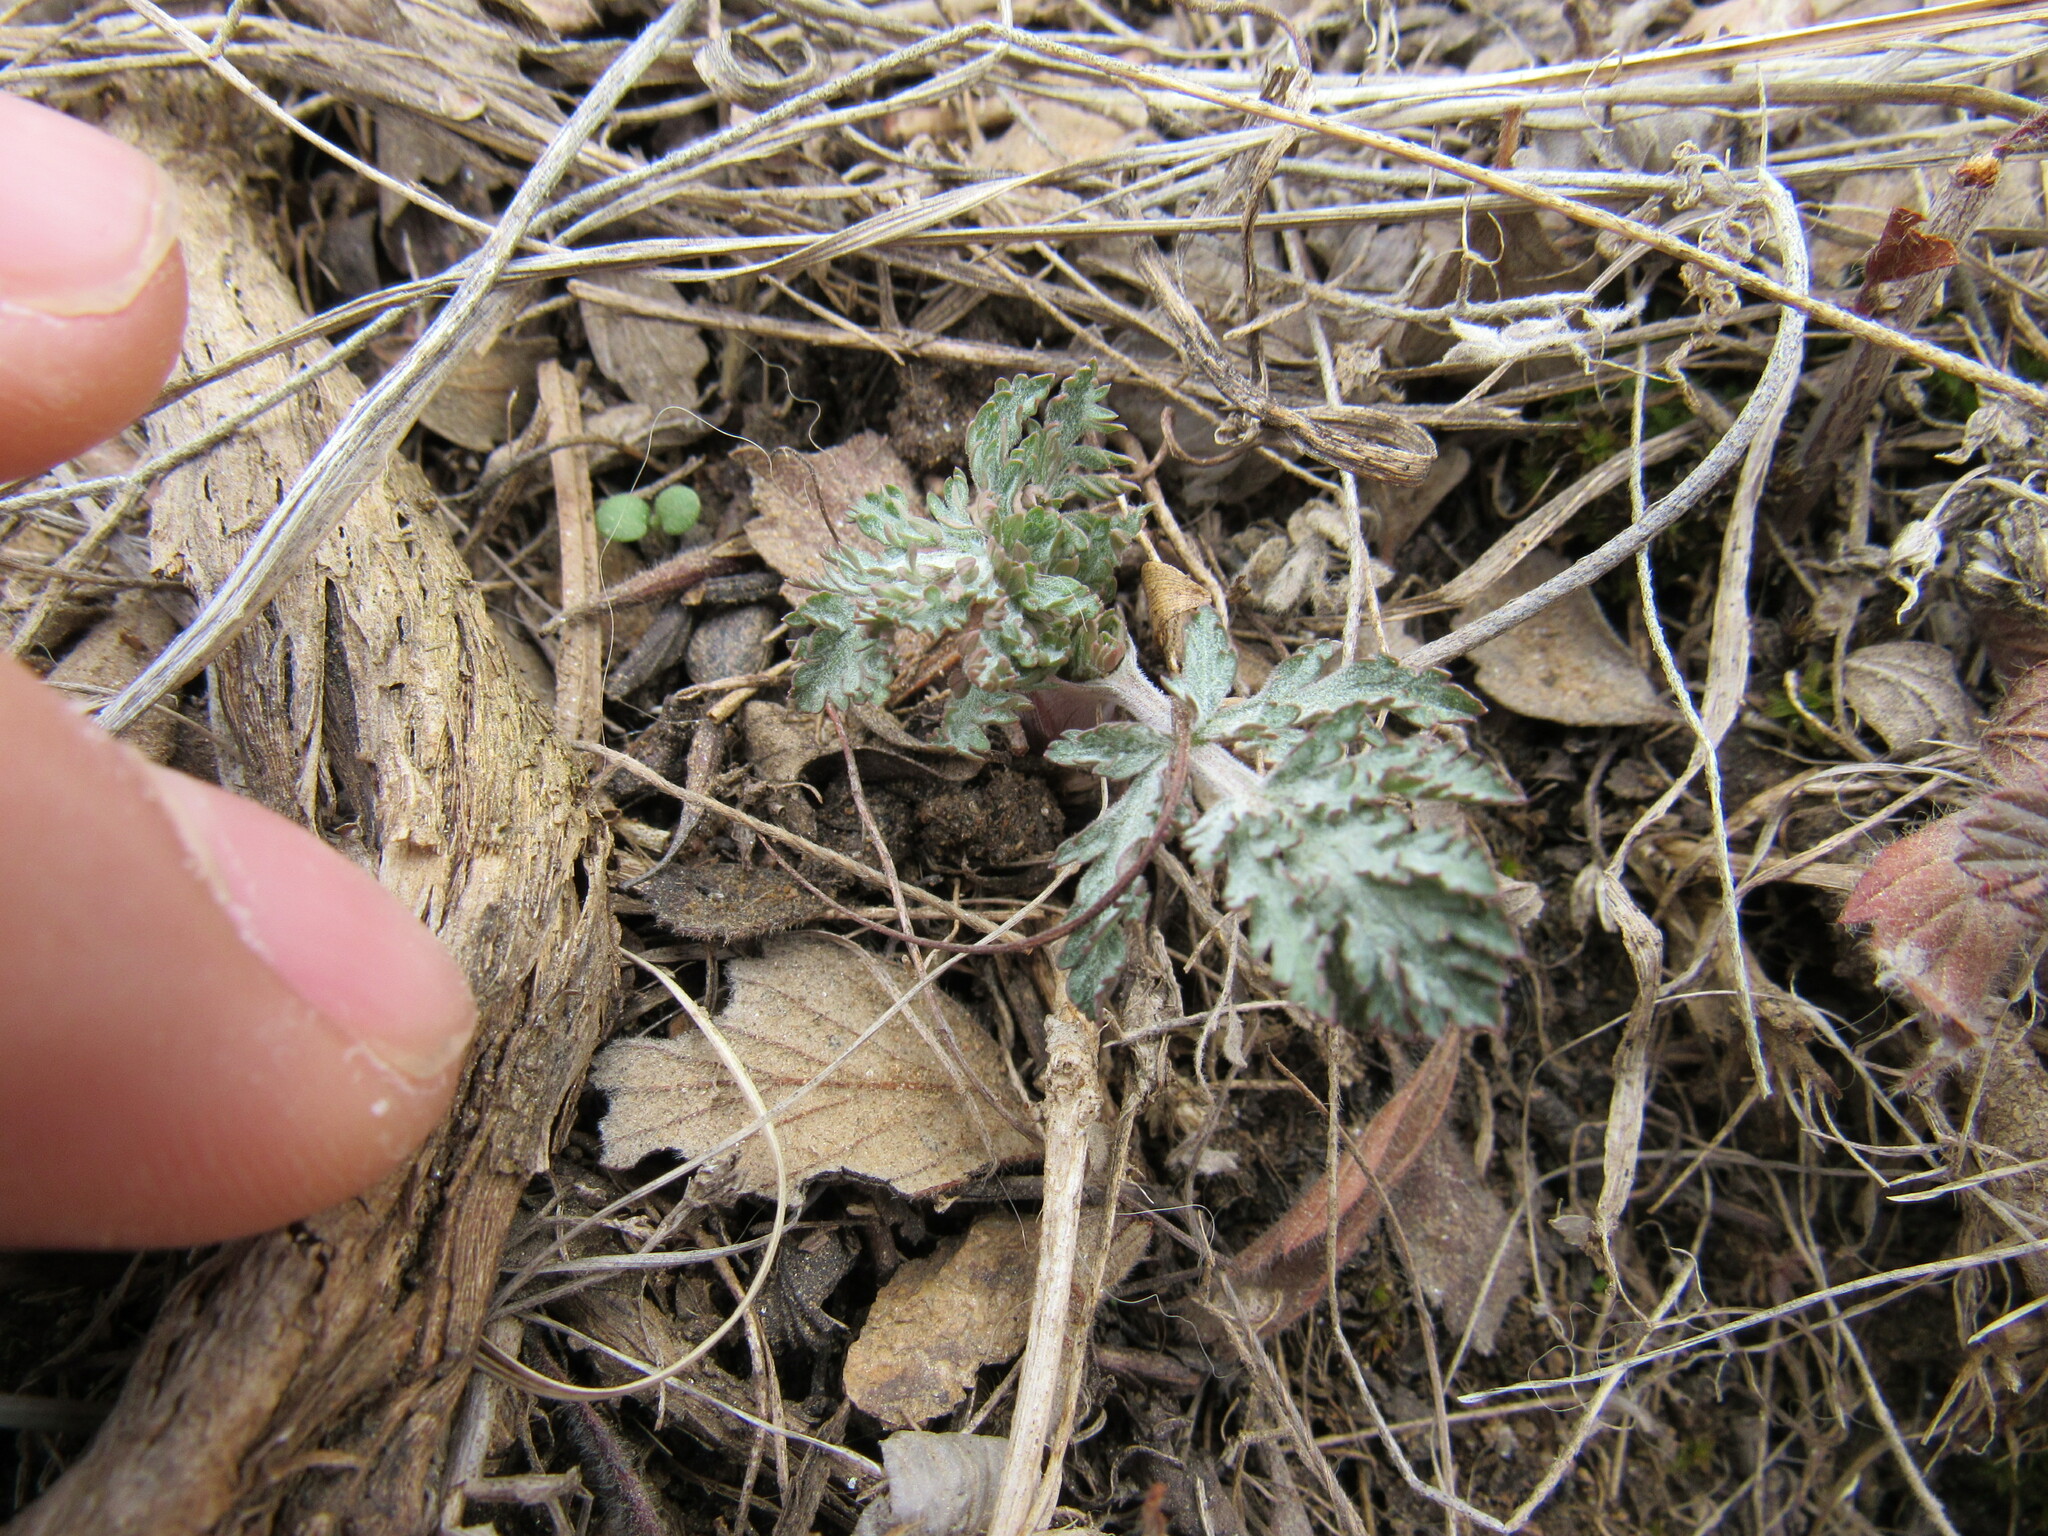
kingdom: Plantae
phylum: Tracheophyta
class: Magnoliopsida
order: Apiales
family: Apiaceae
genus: Lomatium
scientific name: Lomatium orientale
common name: Eastern cous
